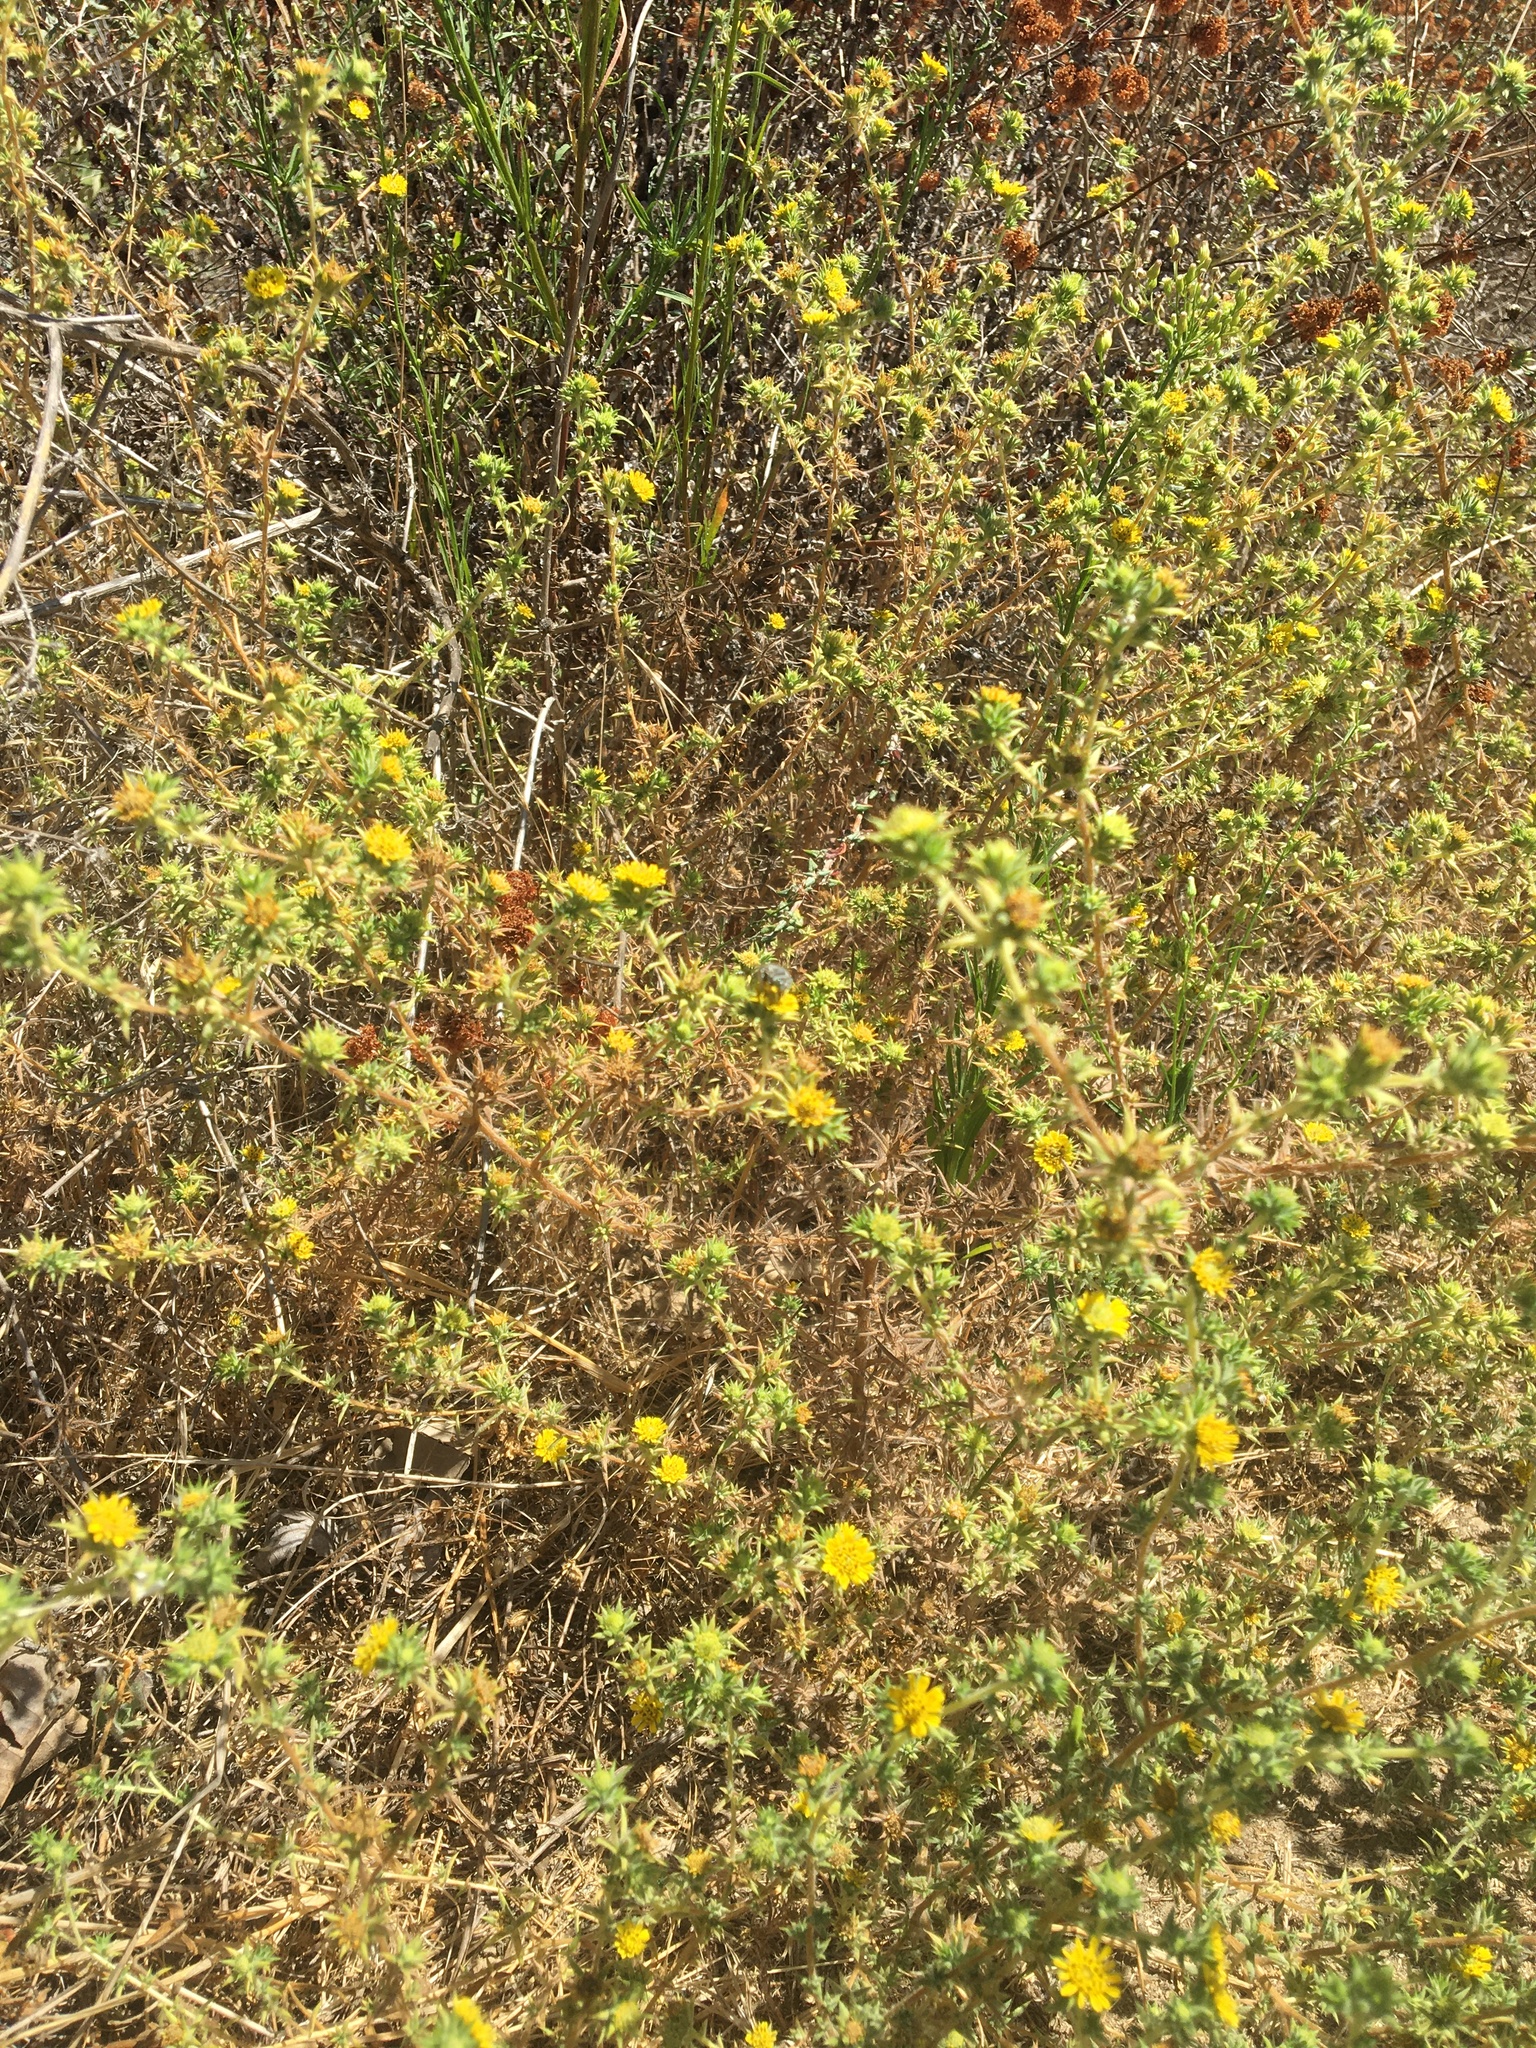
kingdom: Plantae
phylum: Tracheophyta
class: Magnoliopsida
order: Asterales
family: Asteraceae
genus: Centromadia
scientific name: Centromadia parryi
